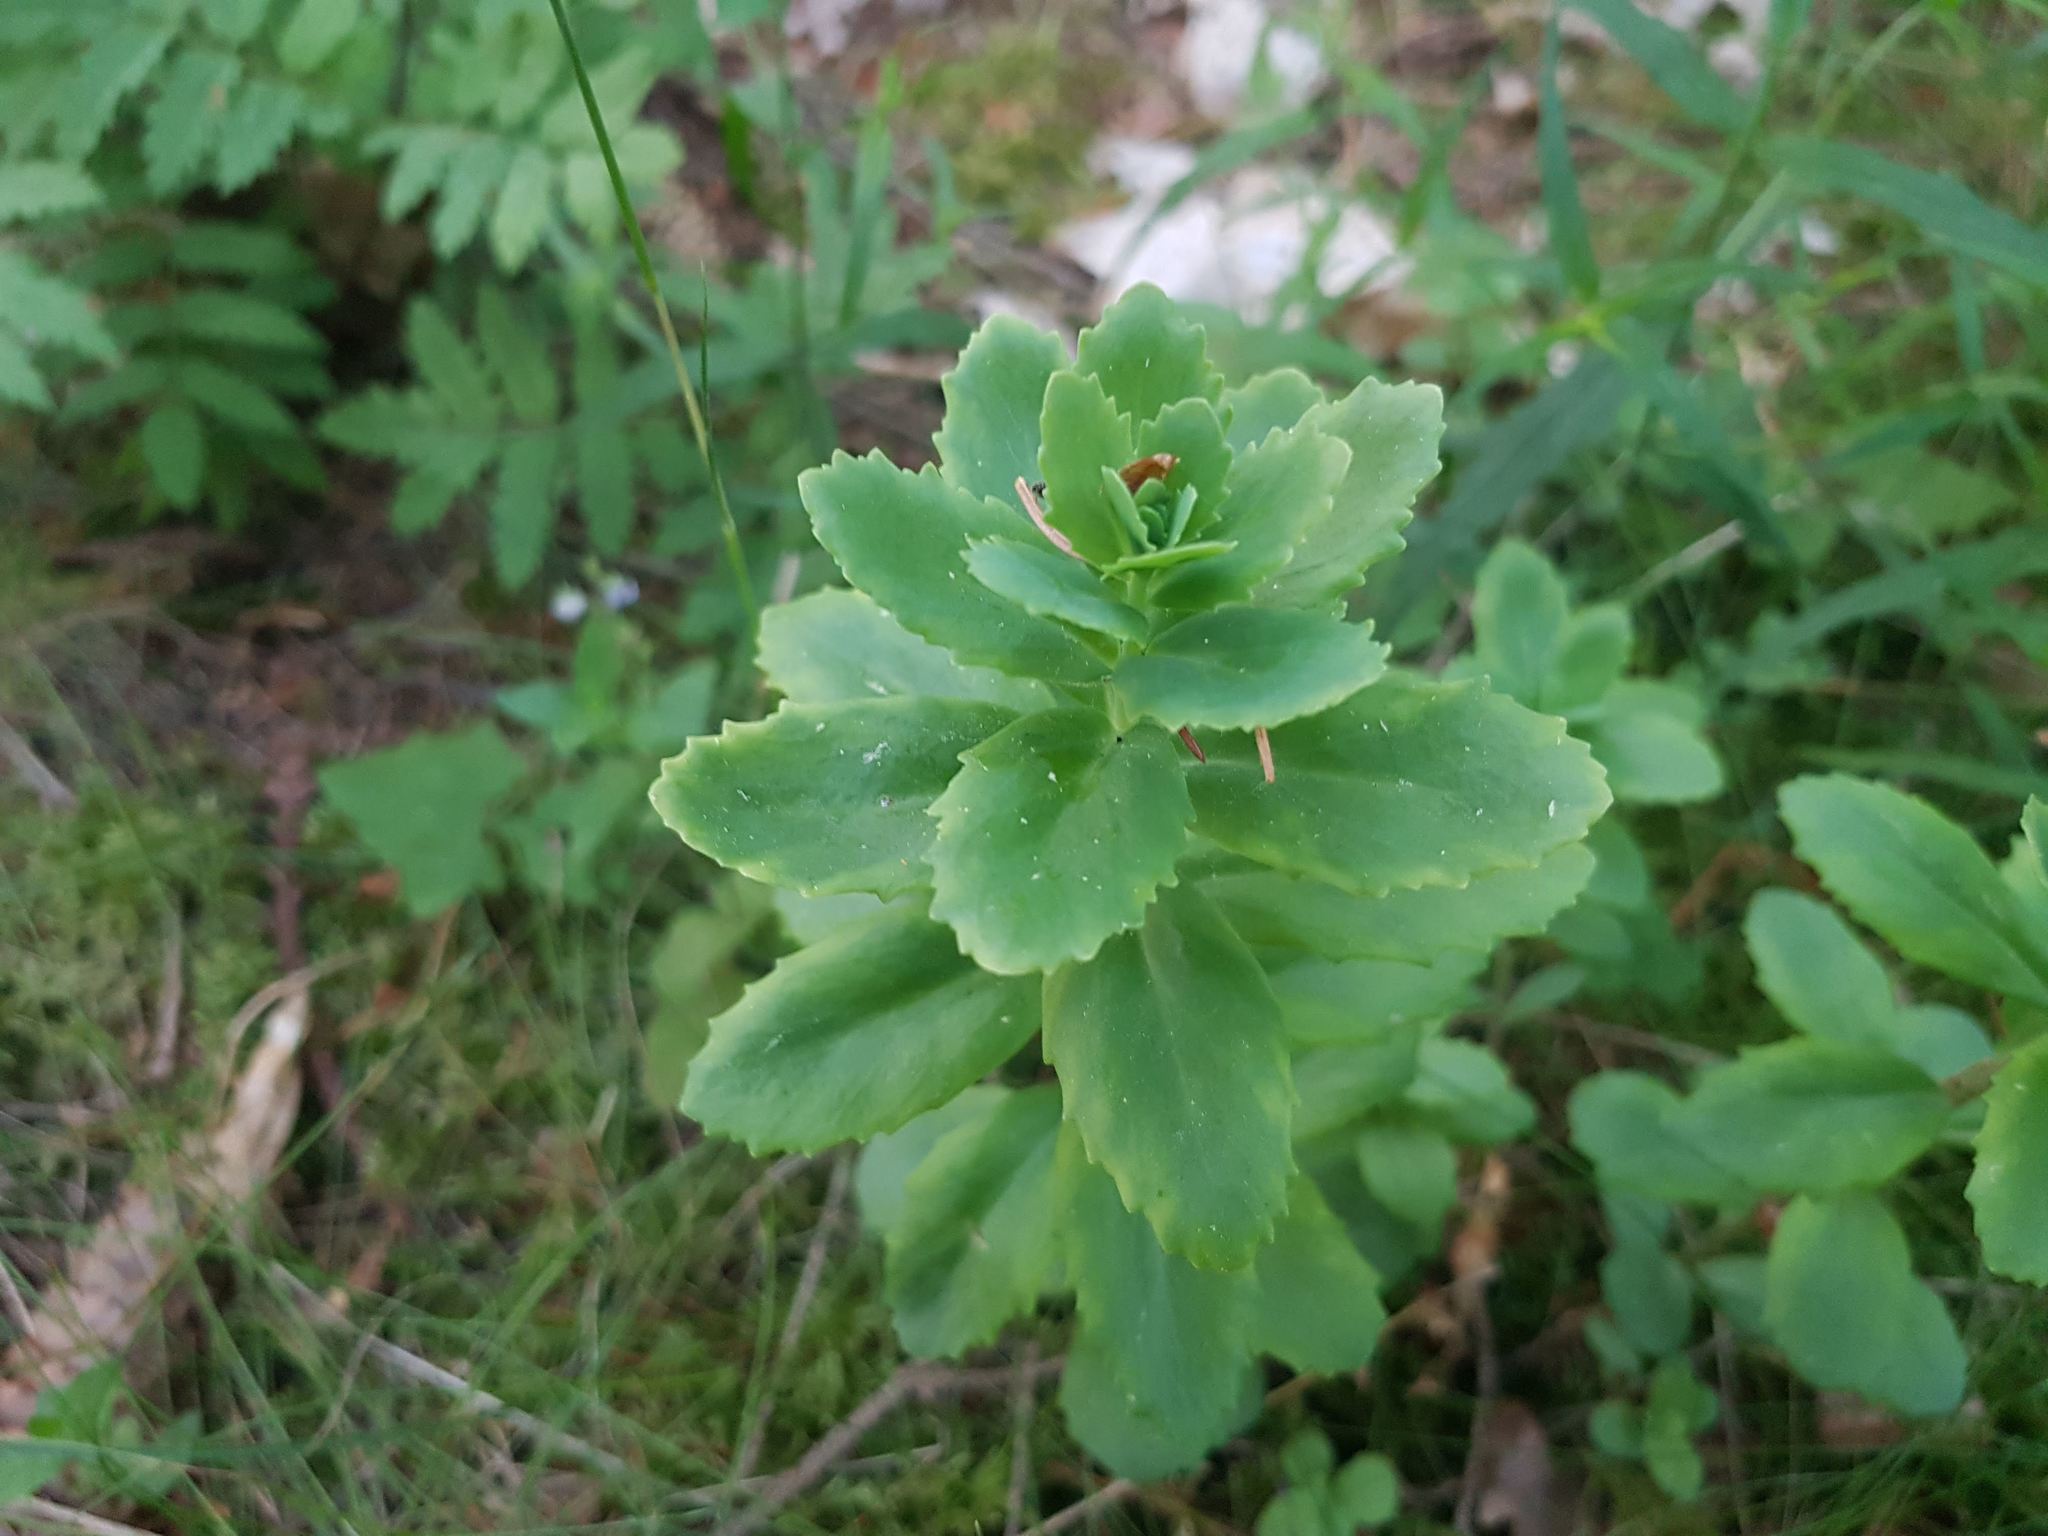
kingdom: Plantae
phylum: Tracheophyta
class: Magnoliopsida
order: Saxifragales
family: Crassulaceae
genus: Hylotelephium
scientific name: Hylotelephium telephium
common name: Live-forever
